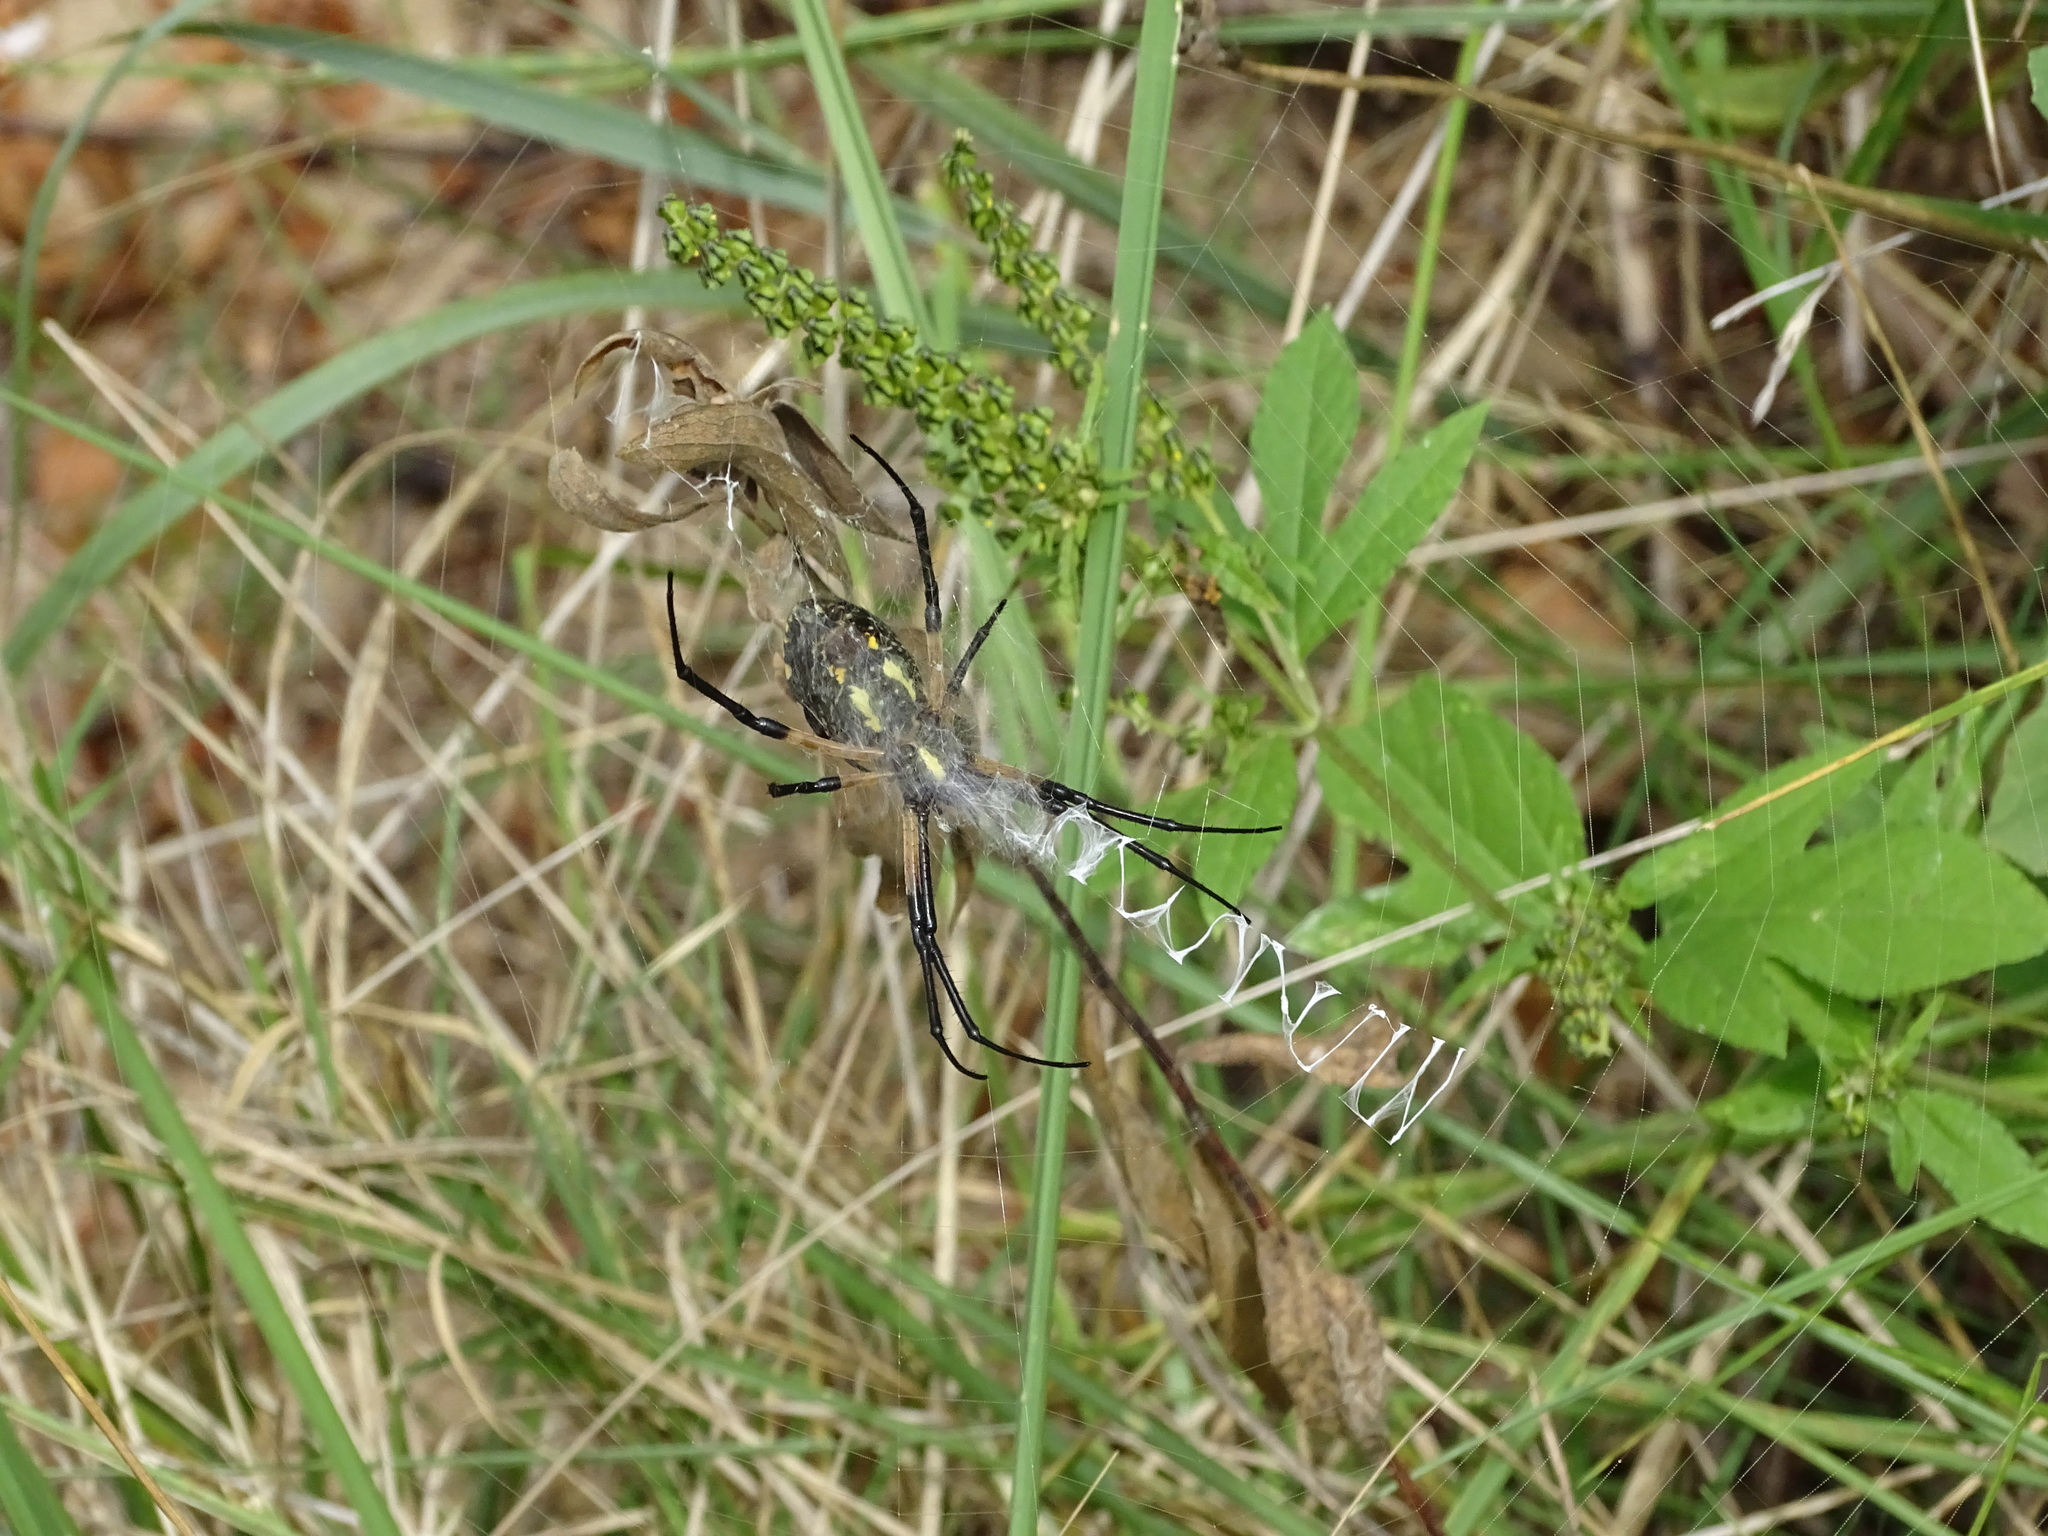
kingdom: Animalia
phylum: Arthropoda
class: Arachnida
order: Araneae
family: Araneidae
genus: Argiope
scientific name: Argiope aurantia
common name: Orb weavers
